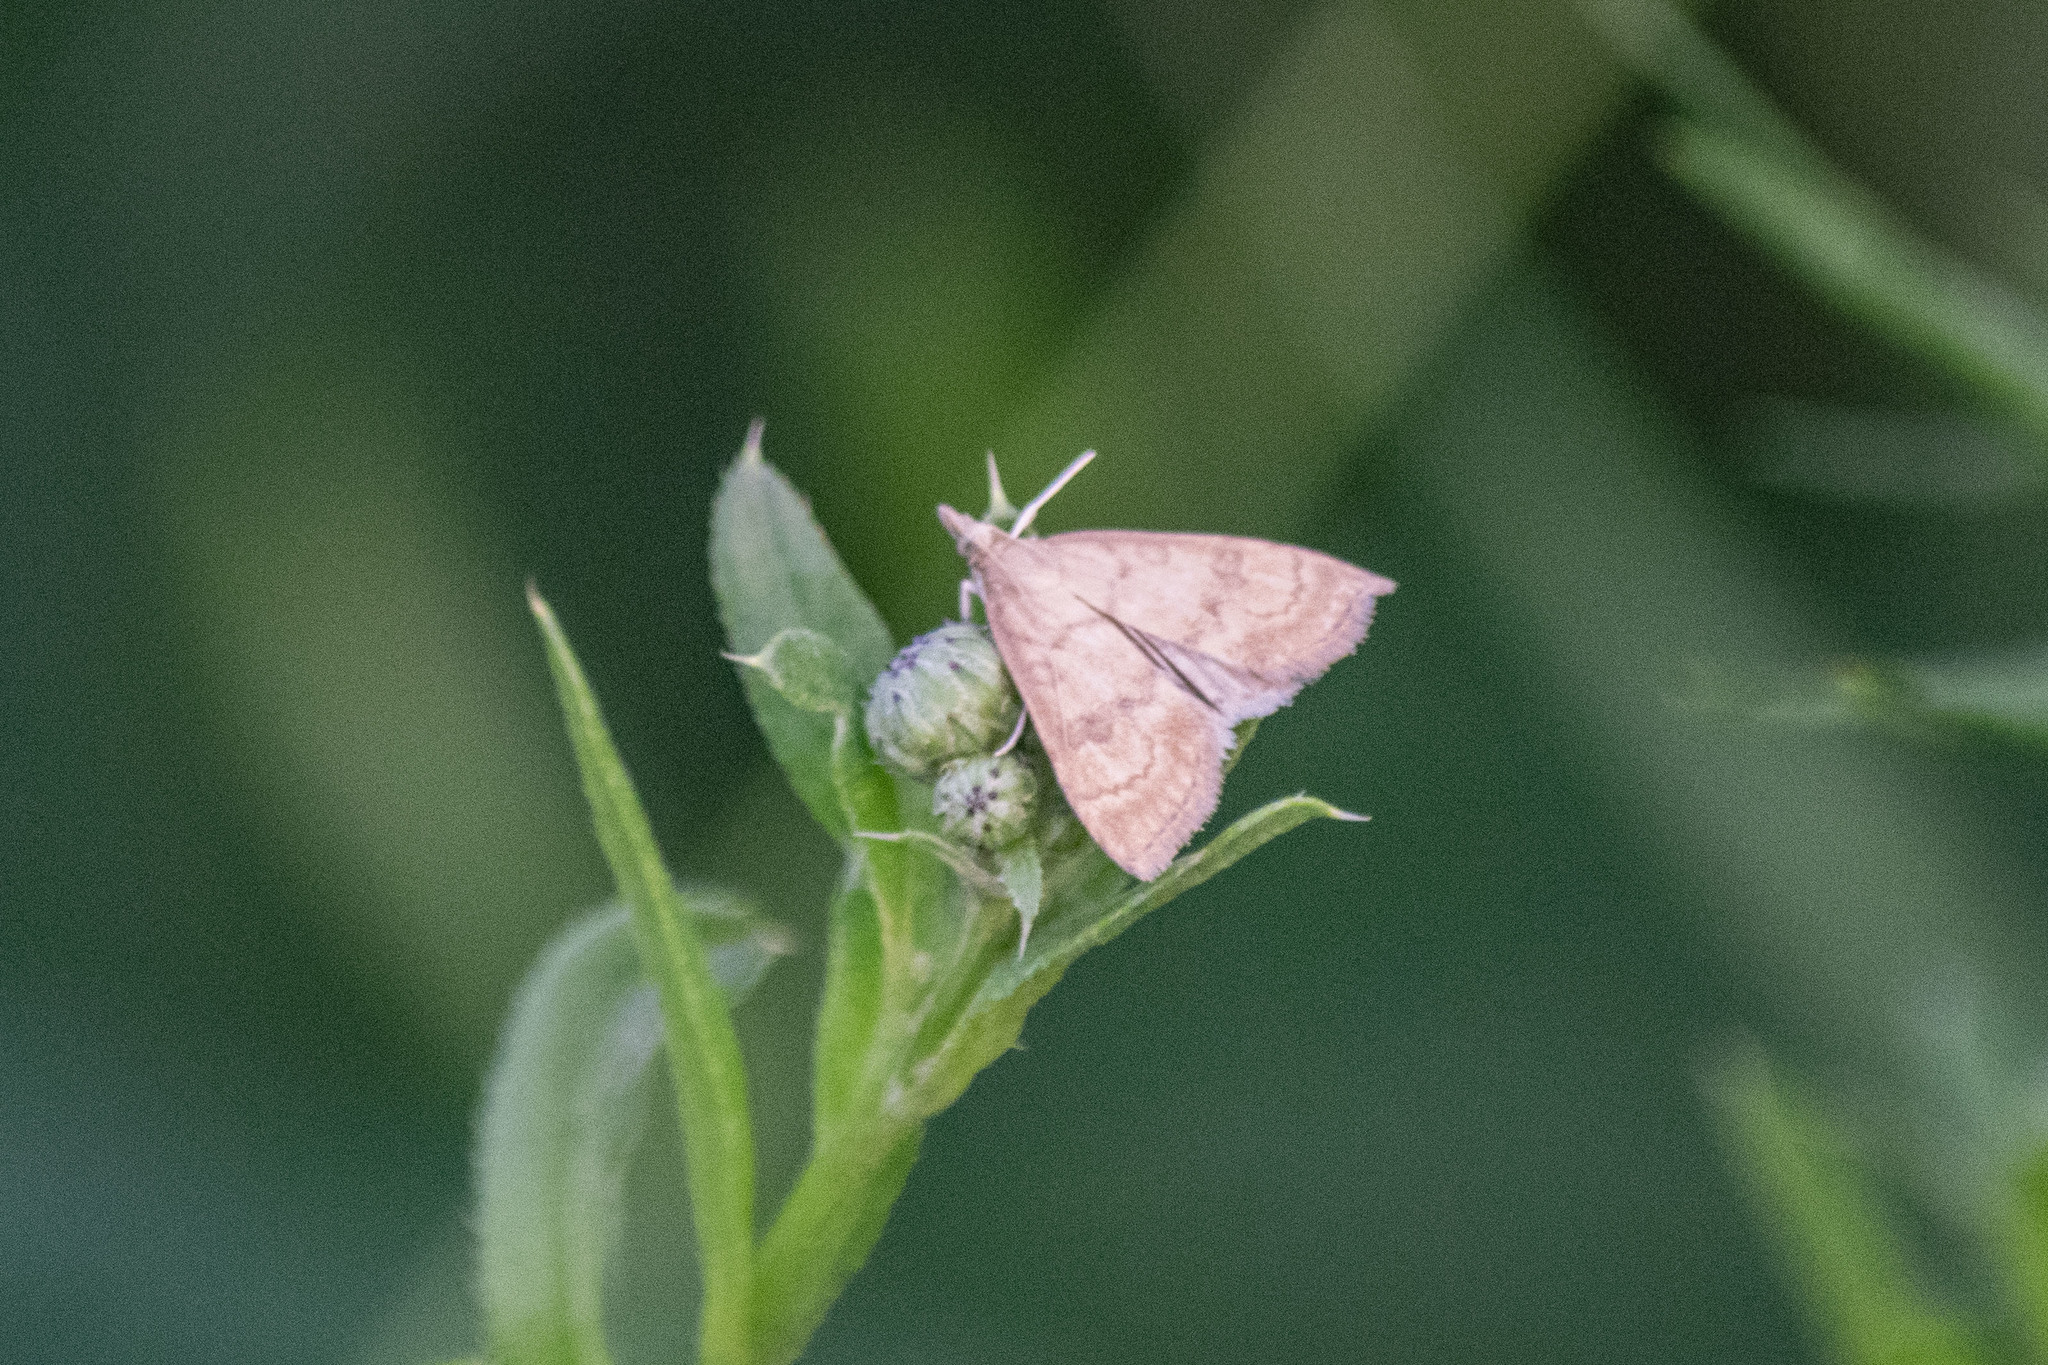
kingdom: Animalia
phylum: Arthropoda
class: Insecta
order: Lepidoptera
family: Crambidae
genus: Udea
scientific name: Udea fulvalis
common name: Fulvous pearl
